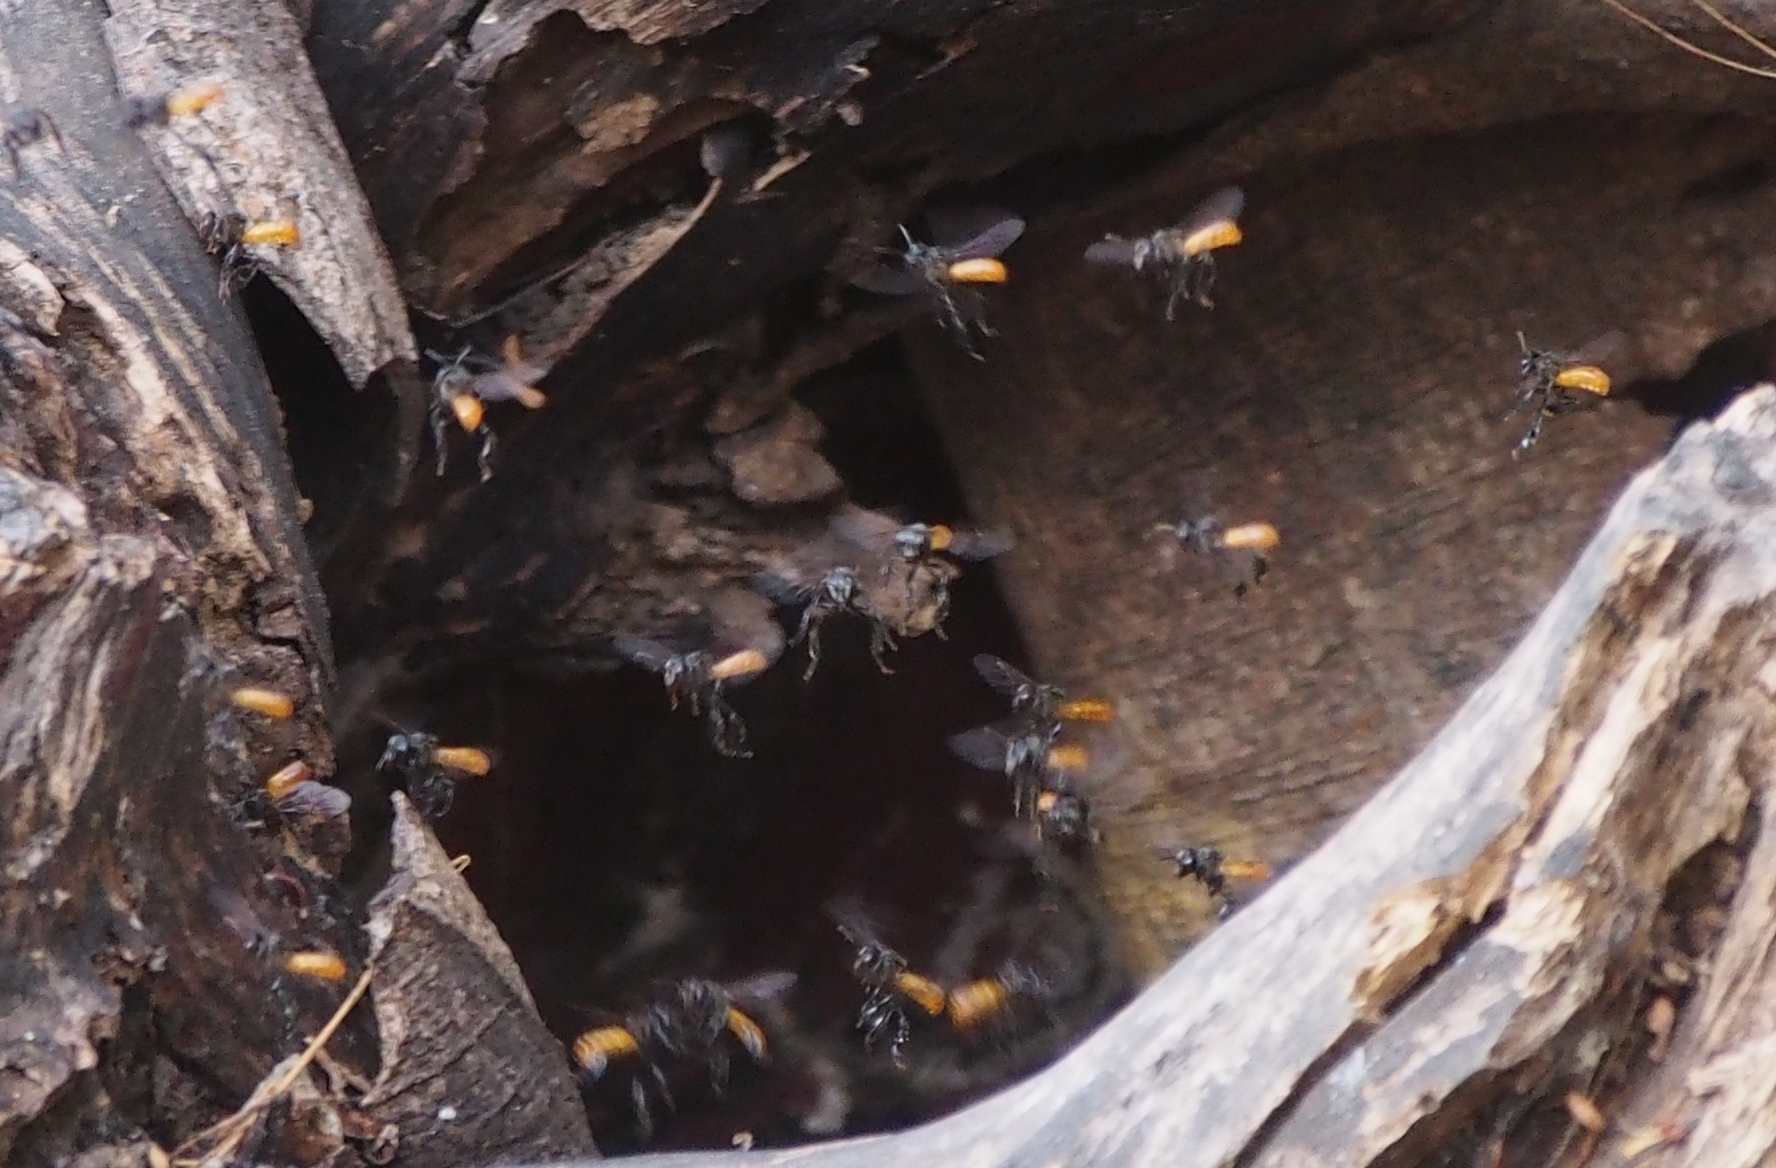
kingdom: Animalia
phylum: Arthropoda
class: Insecta
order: Hymenoptera
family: Apidae
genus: Trigona
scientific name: Trigona fulviventris
